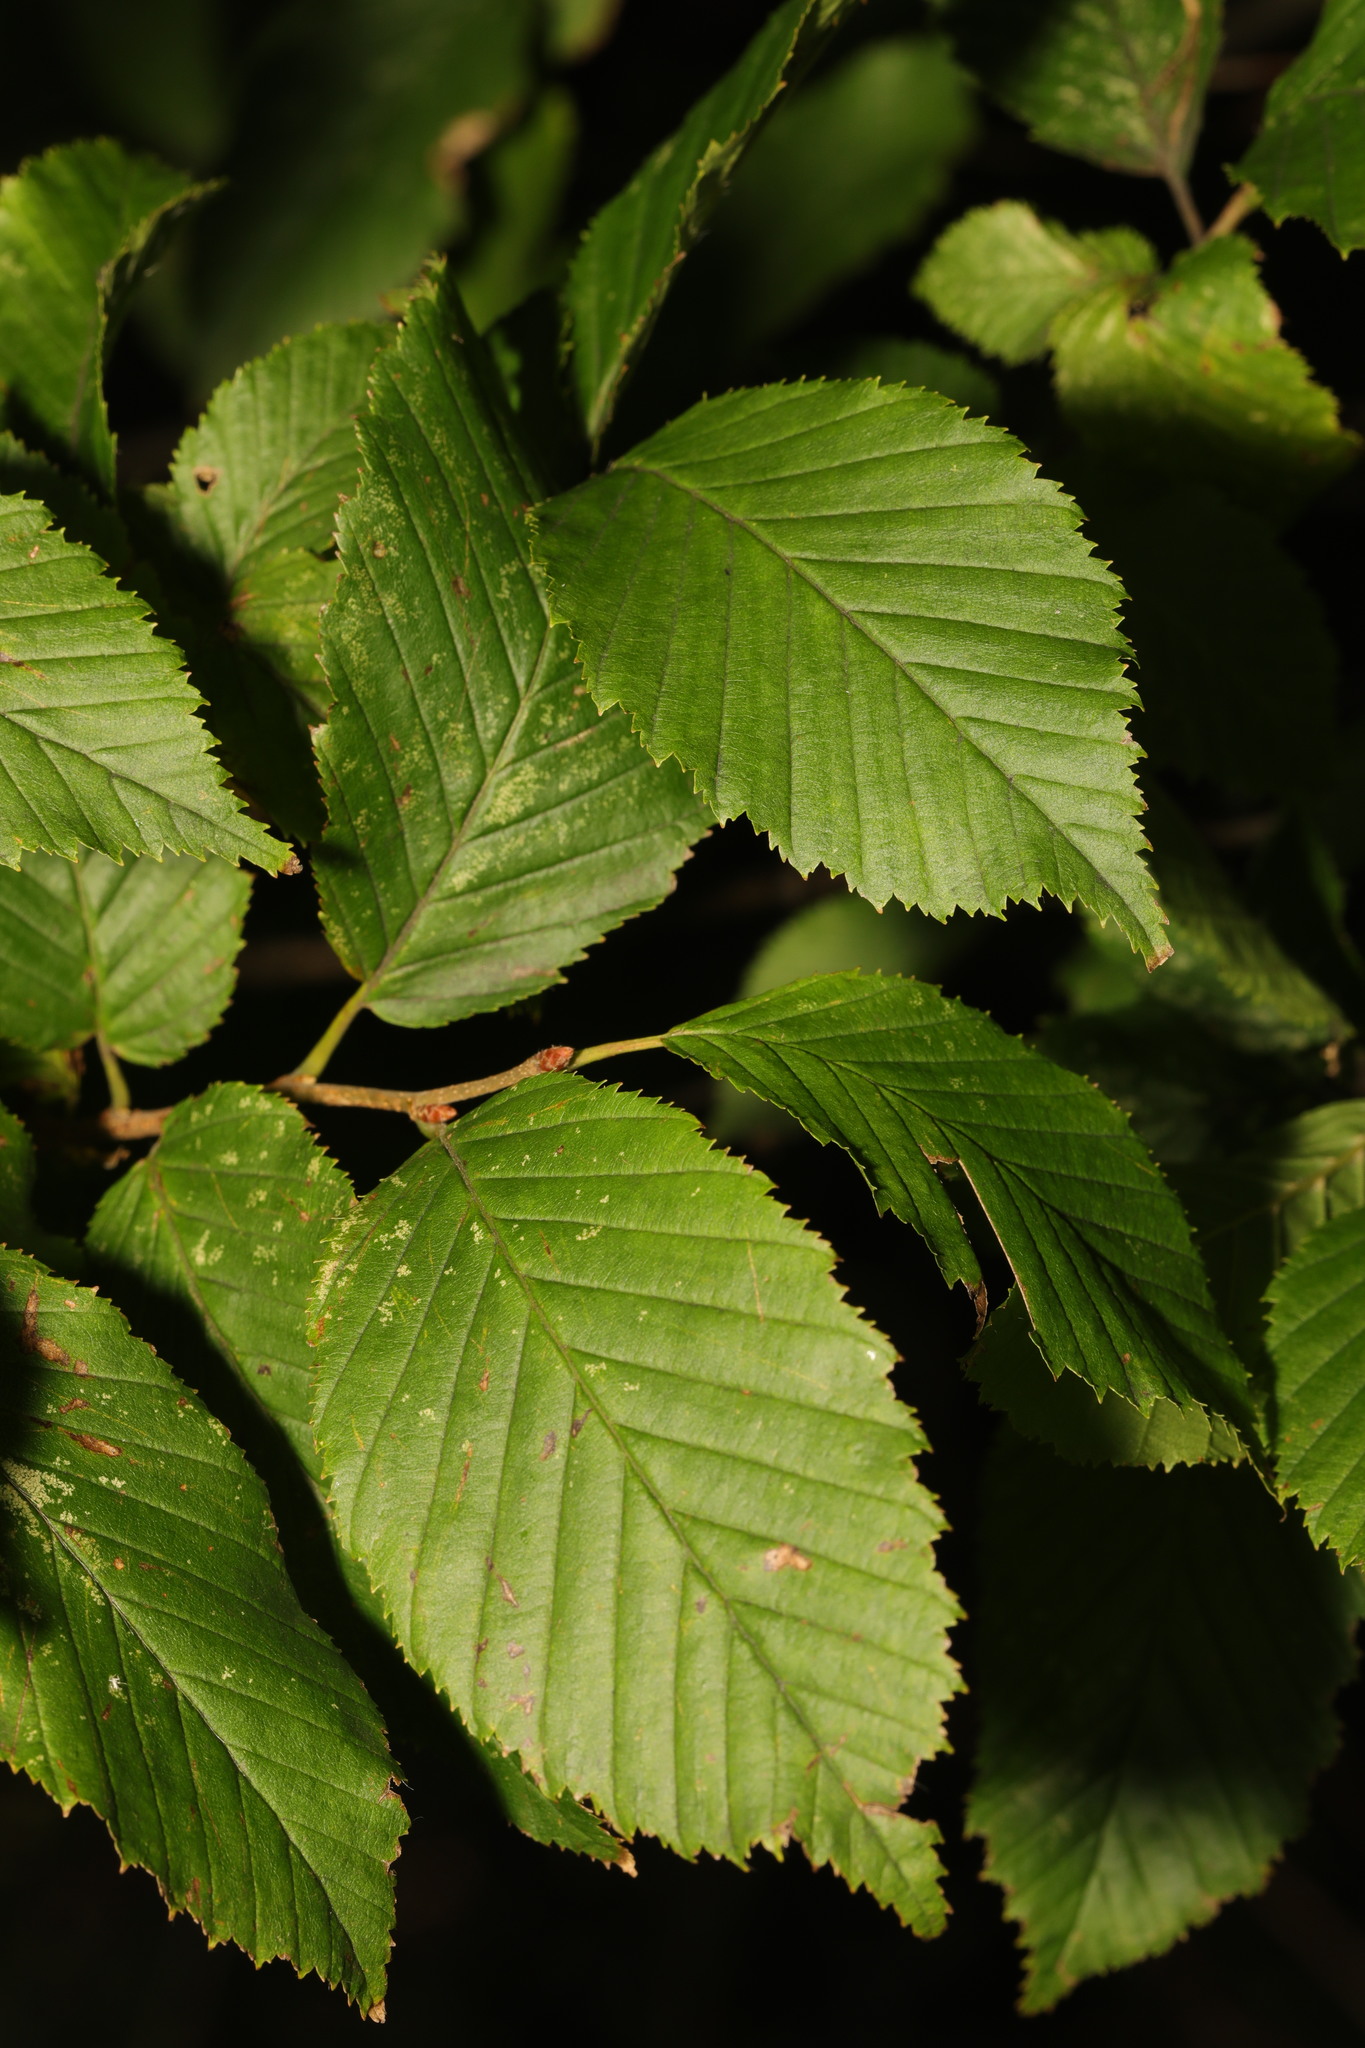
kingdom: Plantae
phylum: Tracheophyta
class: Magnoliopsida
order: Fagales
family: Betulaceae
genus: Carpinus
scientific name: Carpinus betulus
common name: Hornbeam
